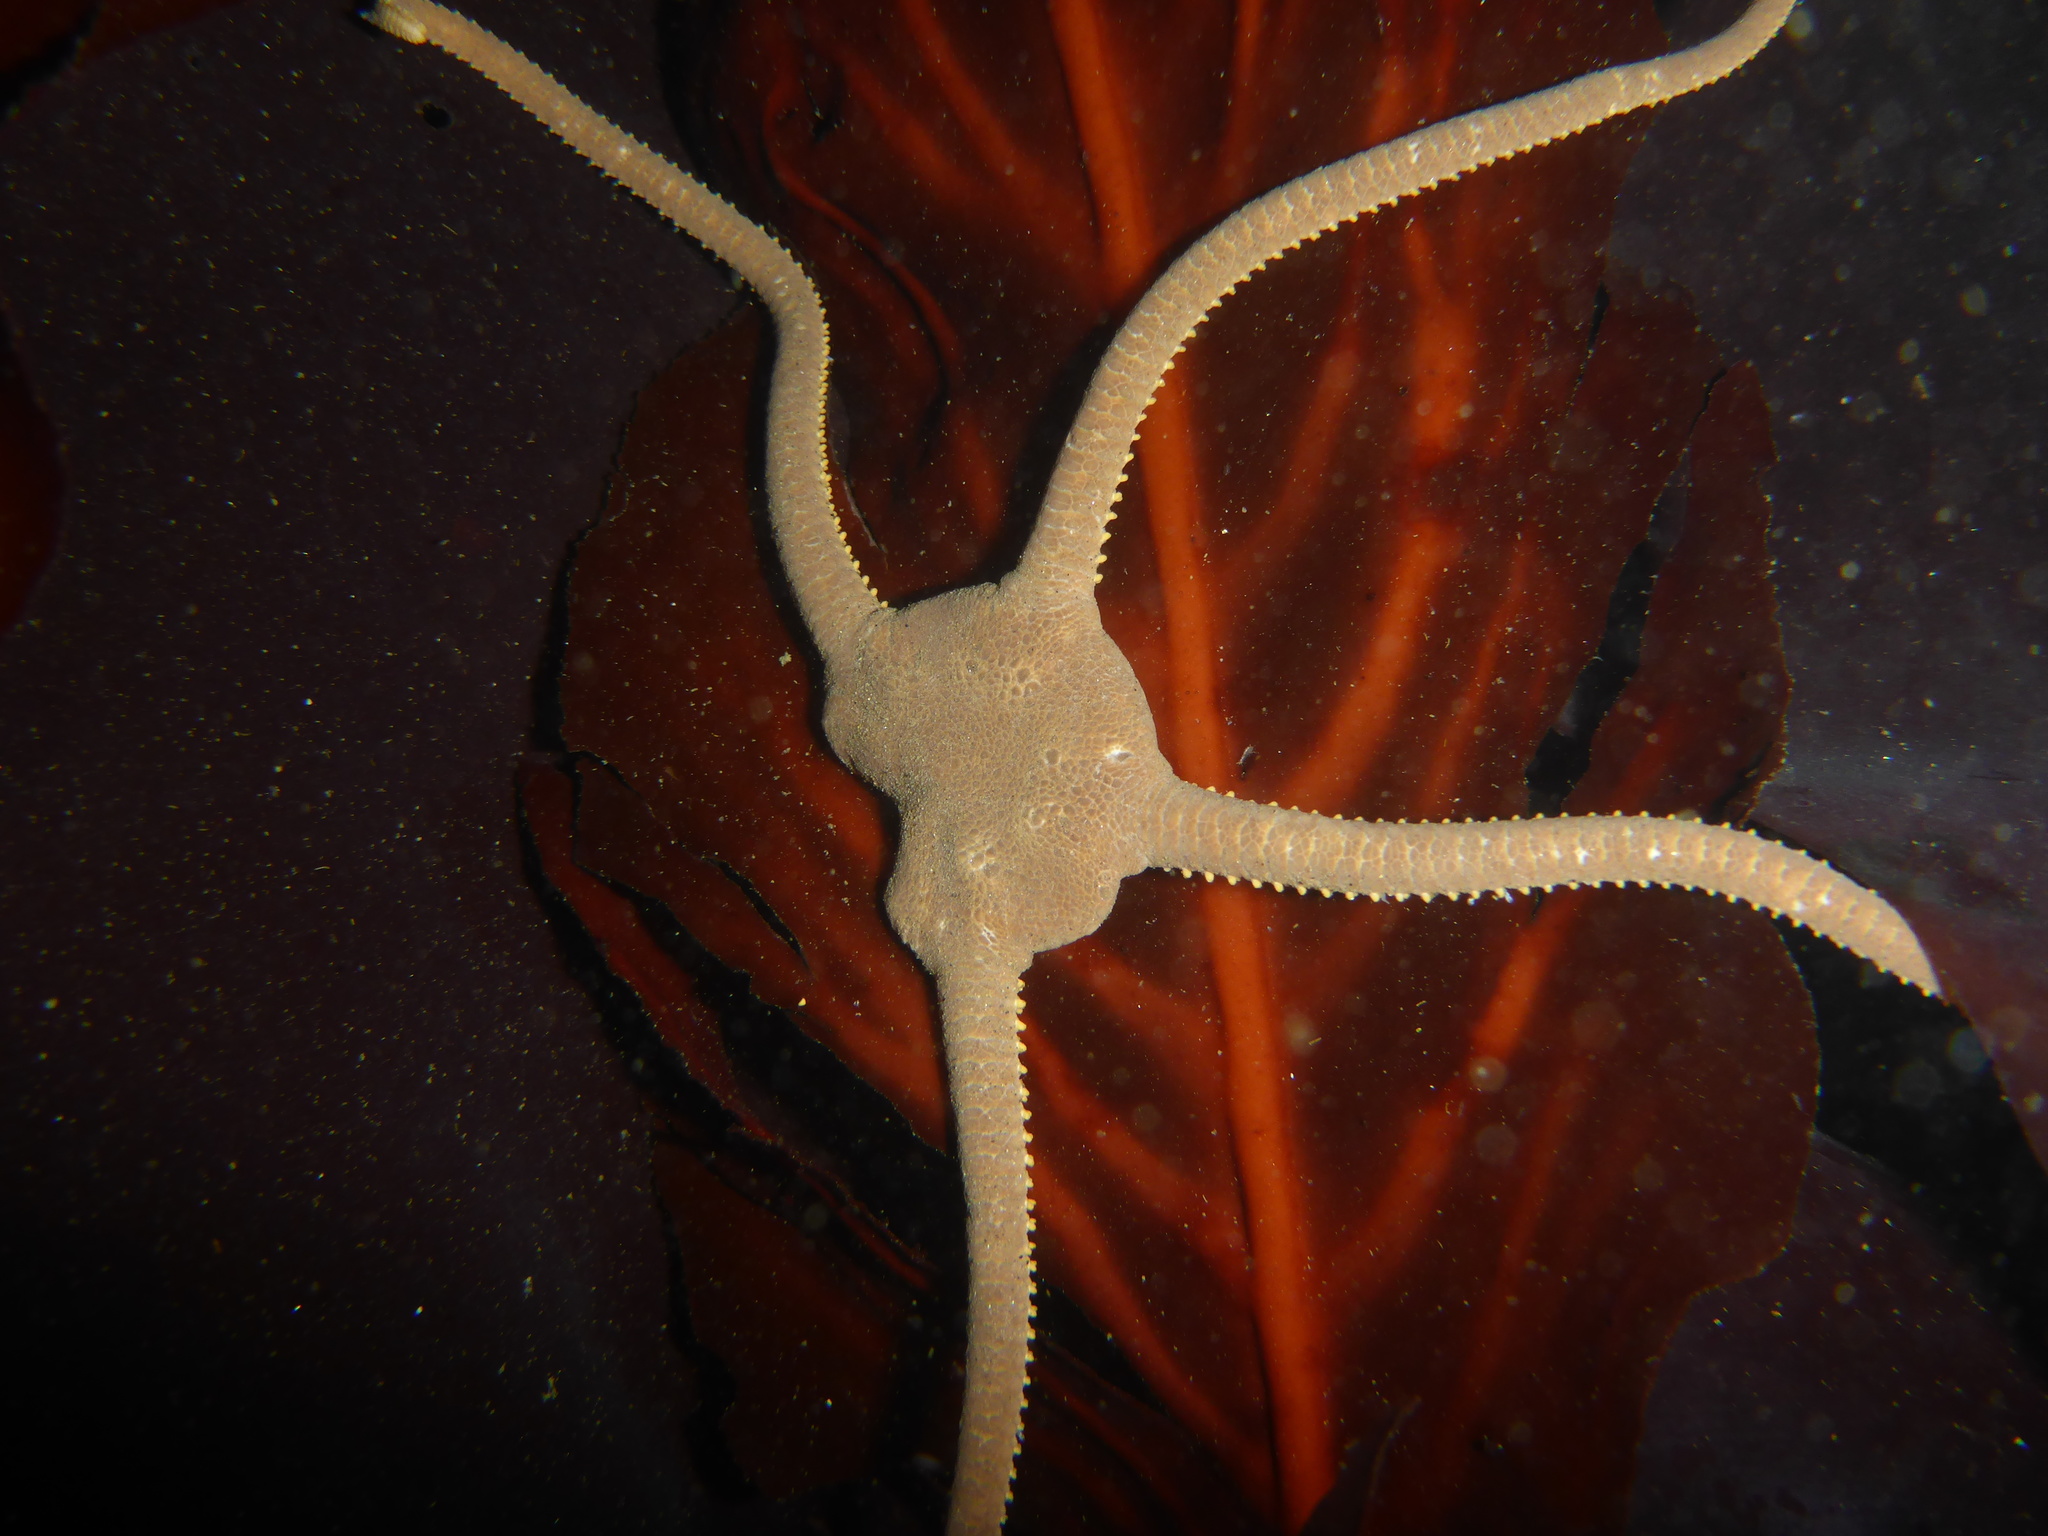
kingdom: Animalia
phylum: Echinodermata
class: Ophiuroidea
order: Amphilepidida
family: Hemieuryalidae
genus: Ophioplocus
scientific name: Ophioplocus esmarki
